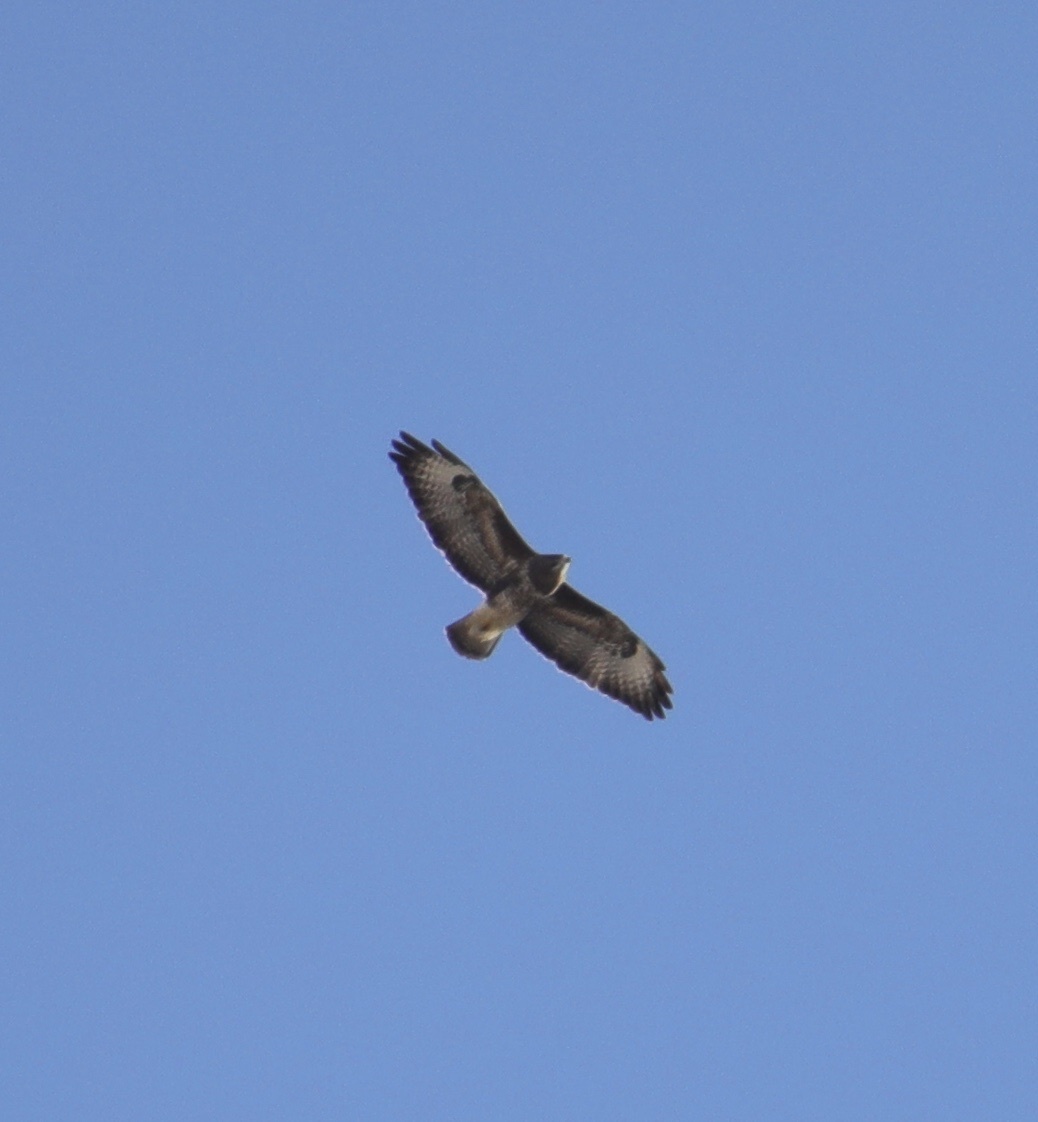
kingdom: Animalia
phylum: Chordata
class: Aves
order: Accipitriformes
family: Accipitridae
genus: Buteo
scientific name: Buteo buteo
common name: Common buzzard
